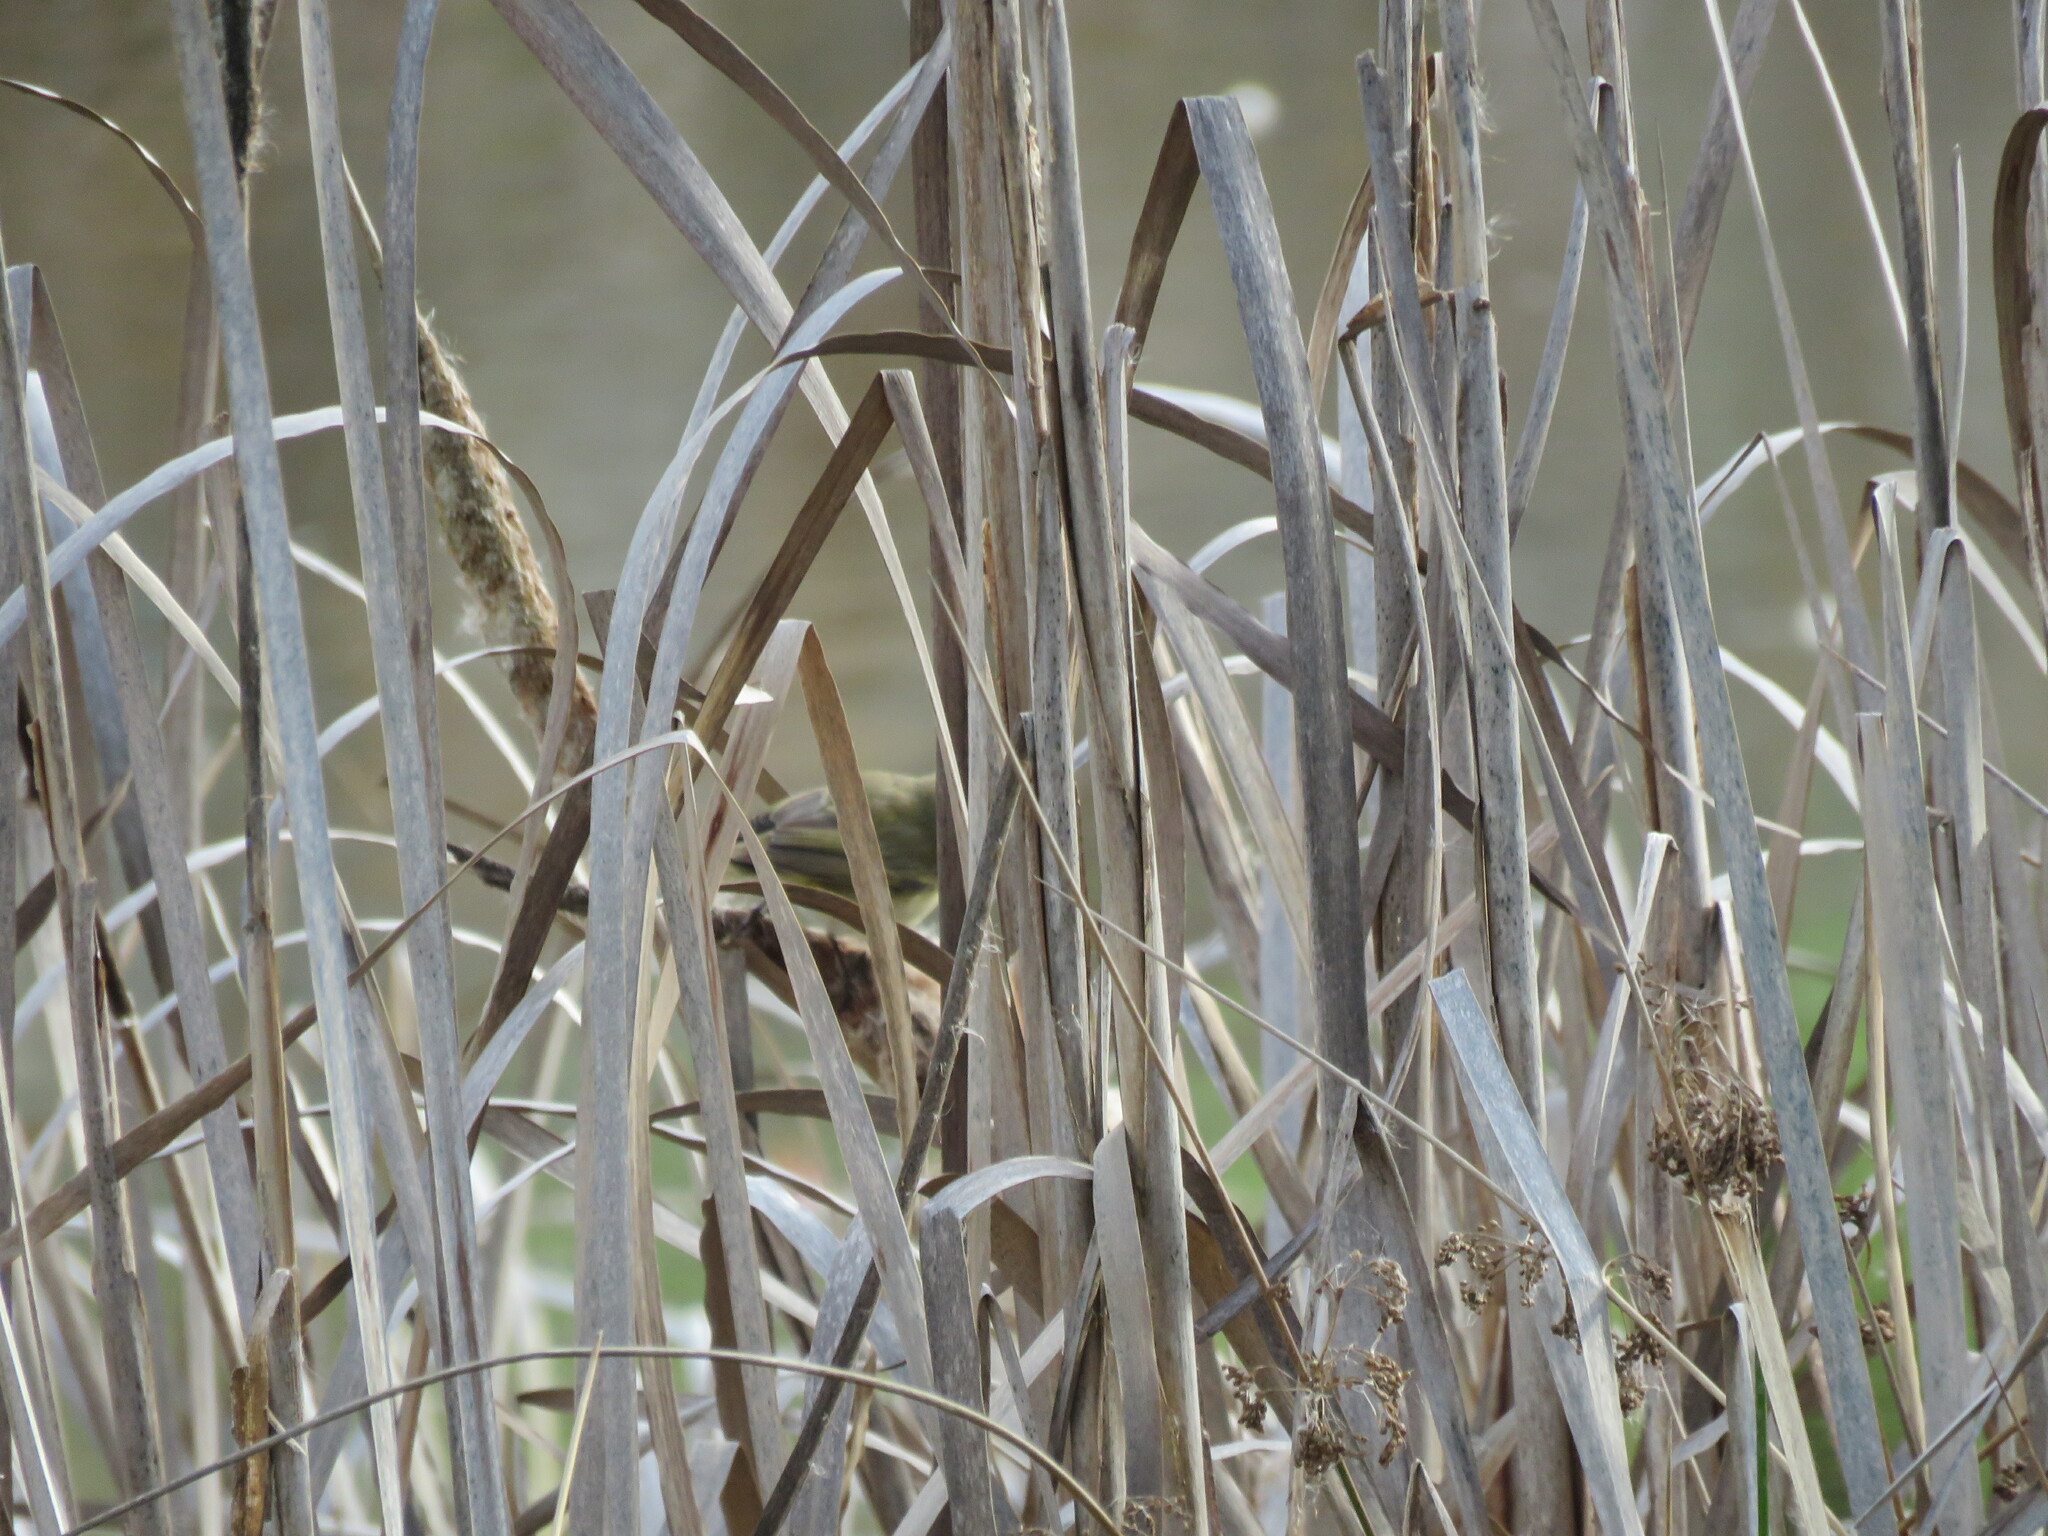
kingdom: Animalia
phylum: Chordata
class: Aves
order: Passeriformes
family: Phylloscopidae
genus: Phylloscopus
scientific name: Phylloscopus collybita
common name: Common chiffchaff
